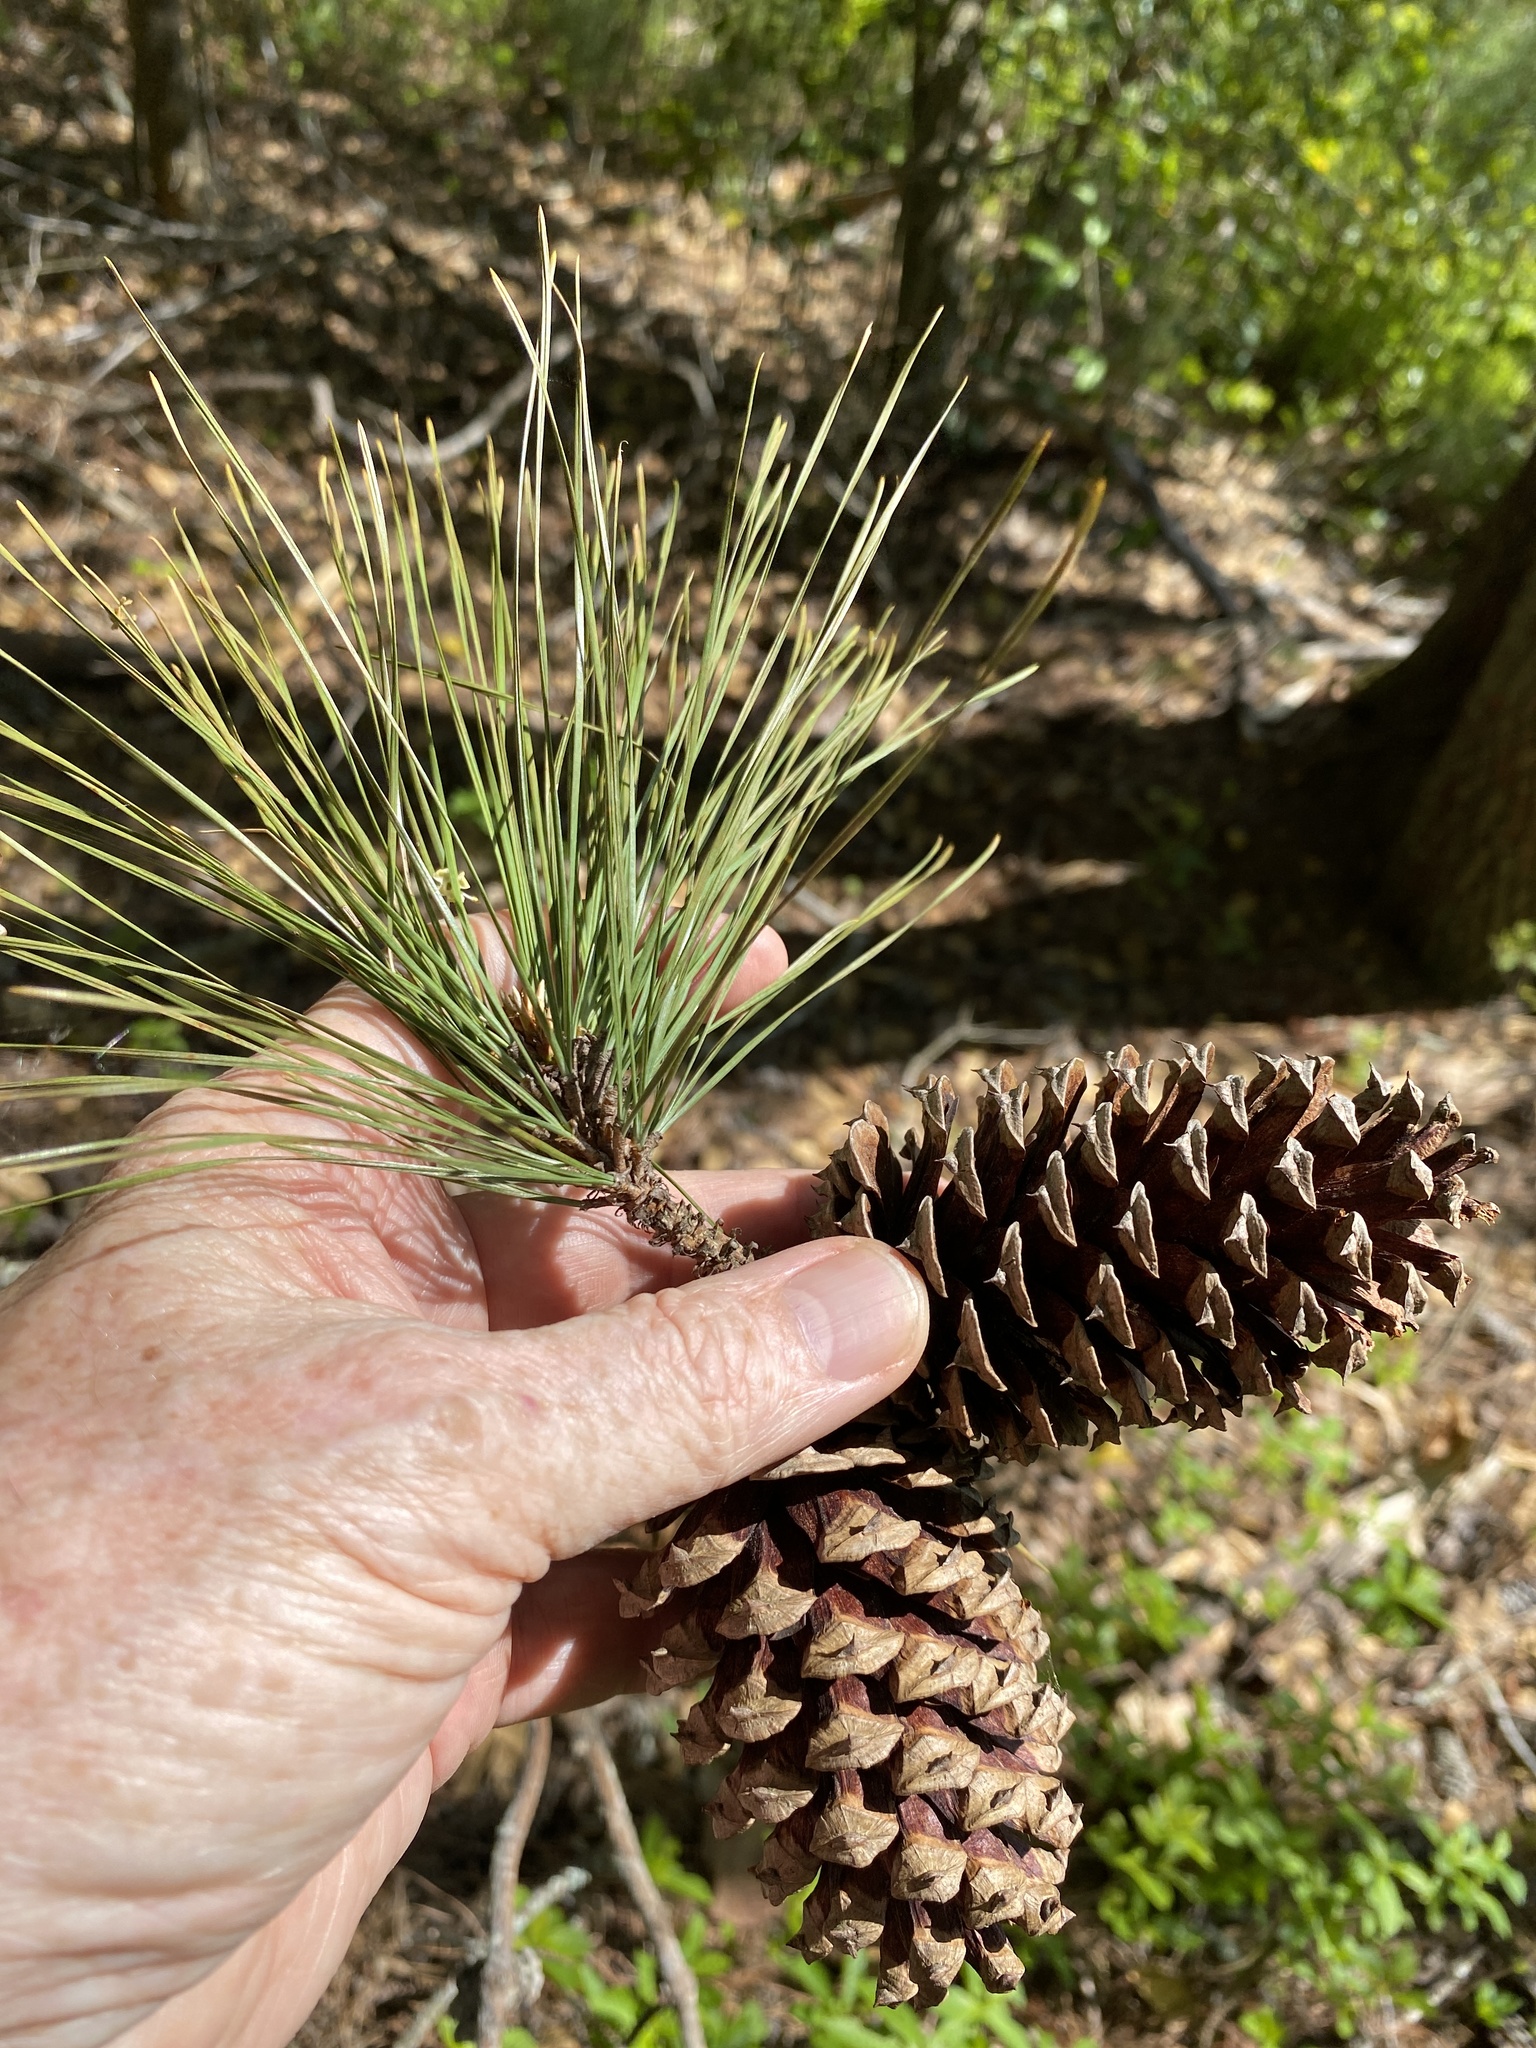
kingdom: Plantae
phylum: Tracheophyta
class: Pinopsida
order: Pinales
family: Pinaceae
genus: Pinus
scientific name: Pinus taeda
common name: Loblolly pine
